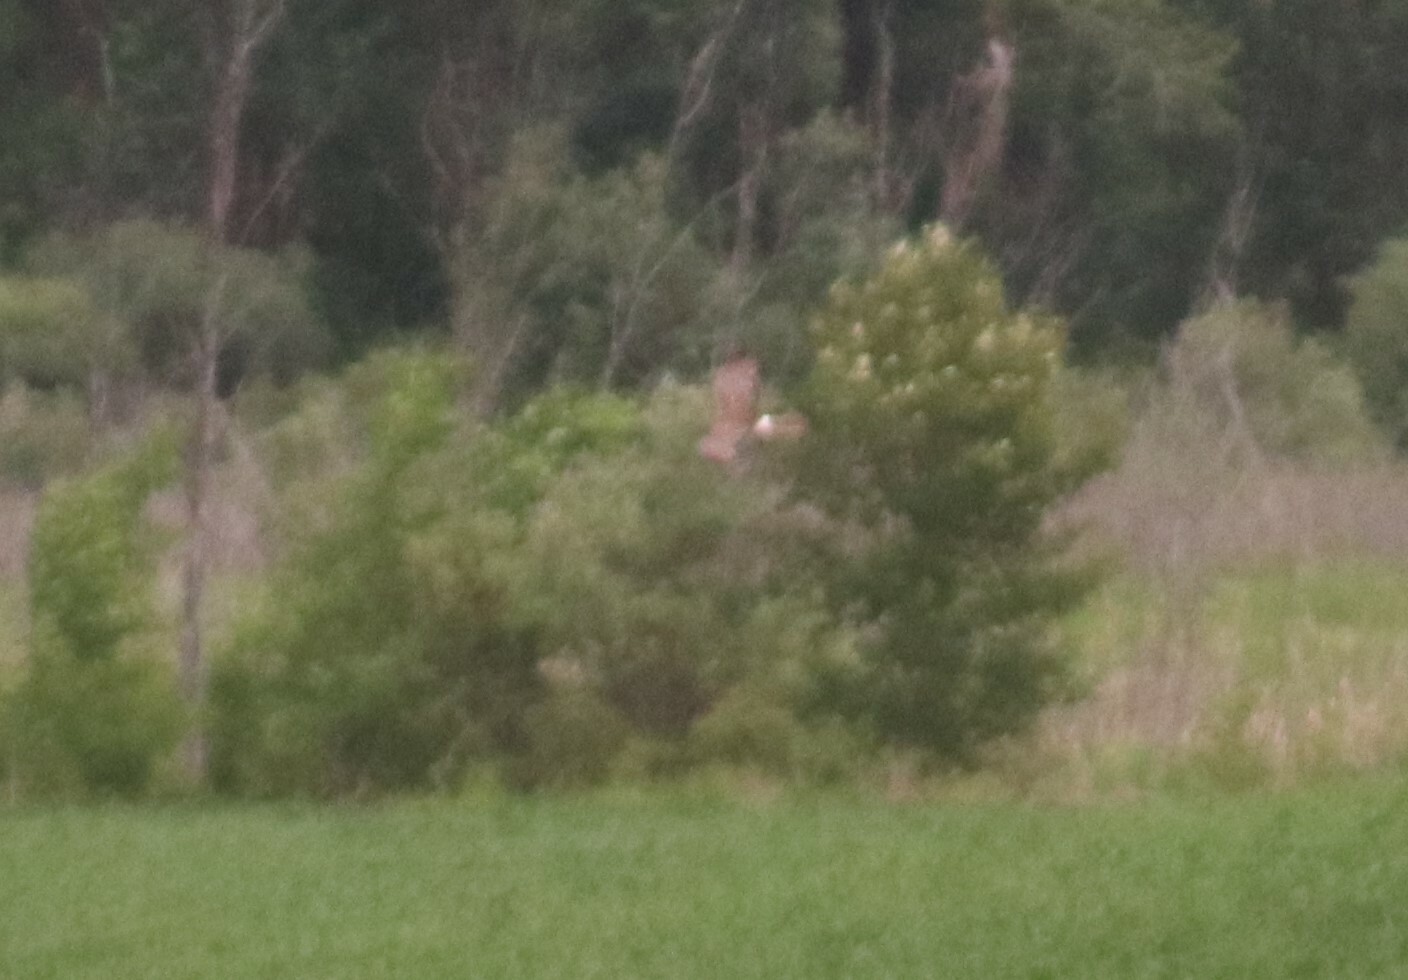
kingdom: Animalia
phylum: Chordata
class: Aves
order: Accipitriformes
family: Accipitridae
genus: Circus
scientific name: Circus cyaneus
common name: Hen harrier
